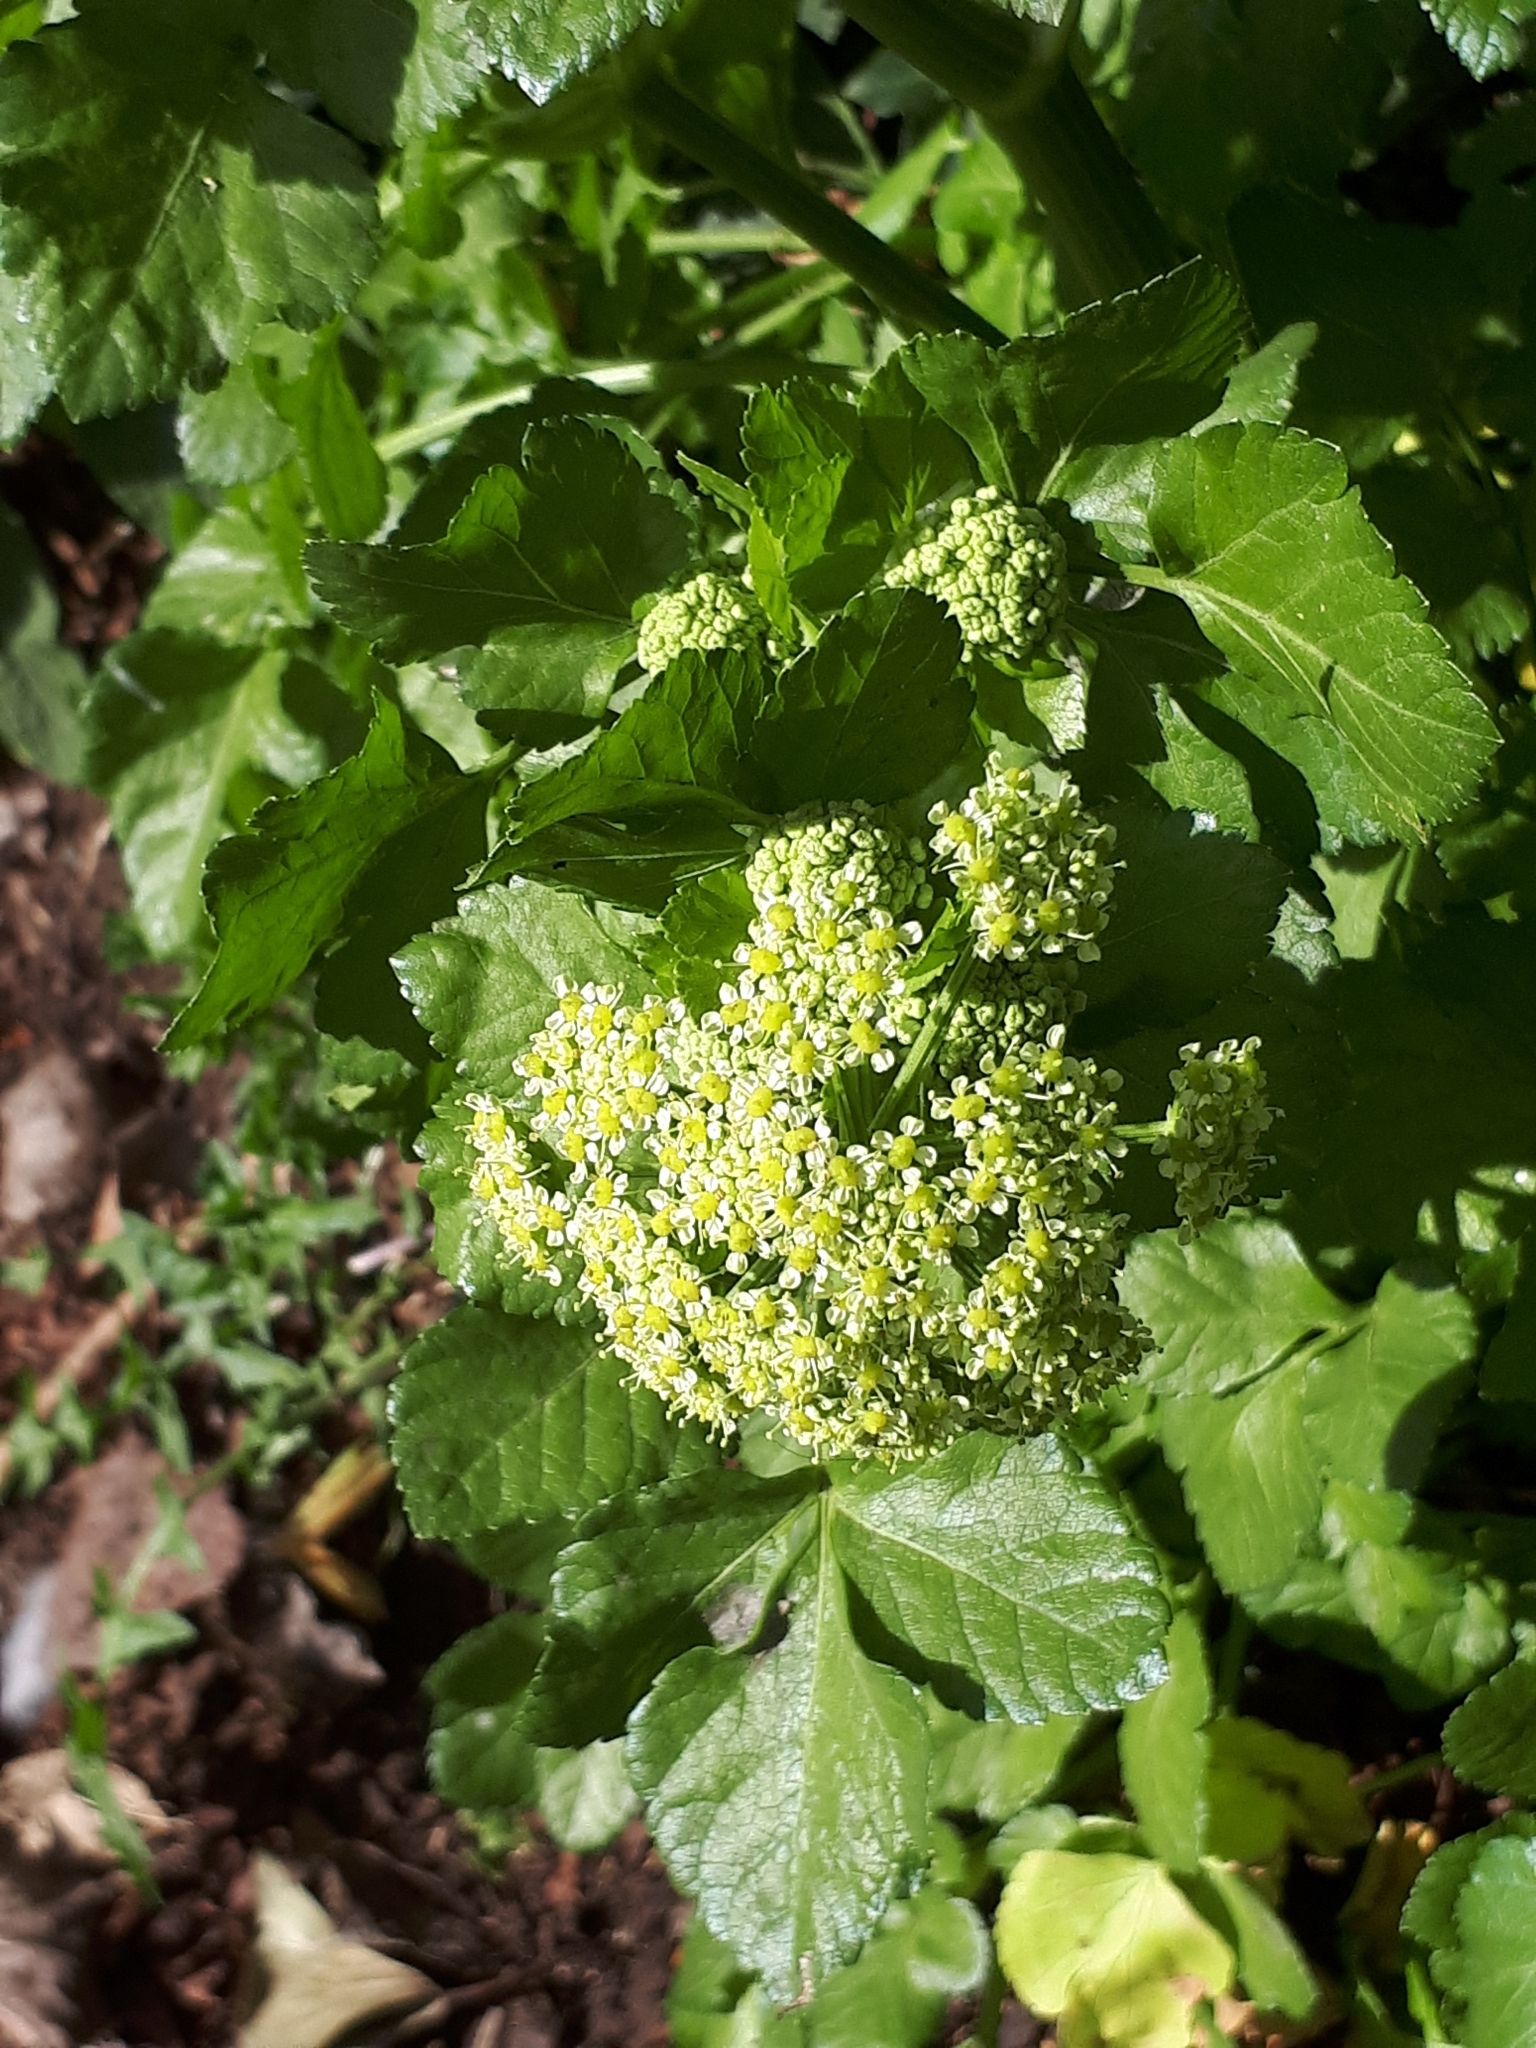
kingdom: Plantae
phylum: Tracheophyta
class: Magnoliopsida
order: Apiales
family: Apiaceae
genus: Smyrnium
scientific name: Smyrnium olusatrum
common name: Alexanders
